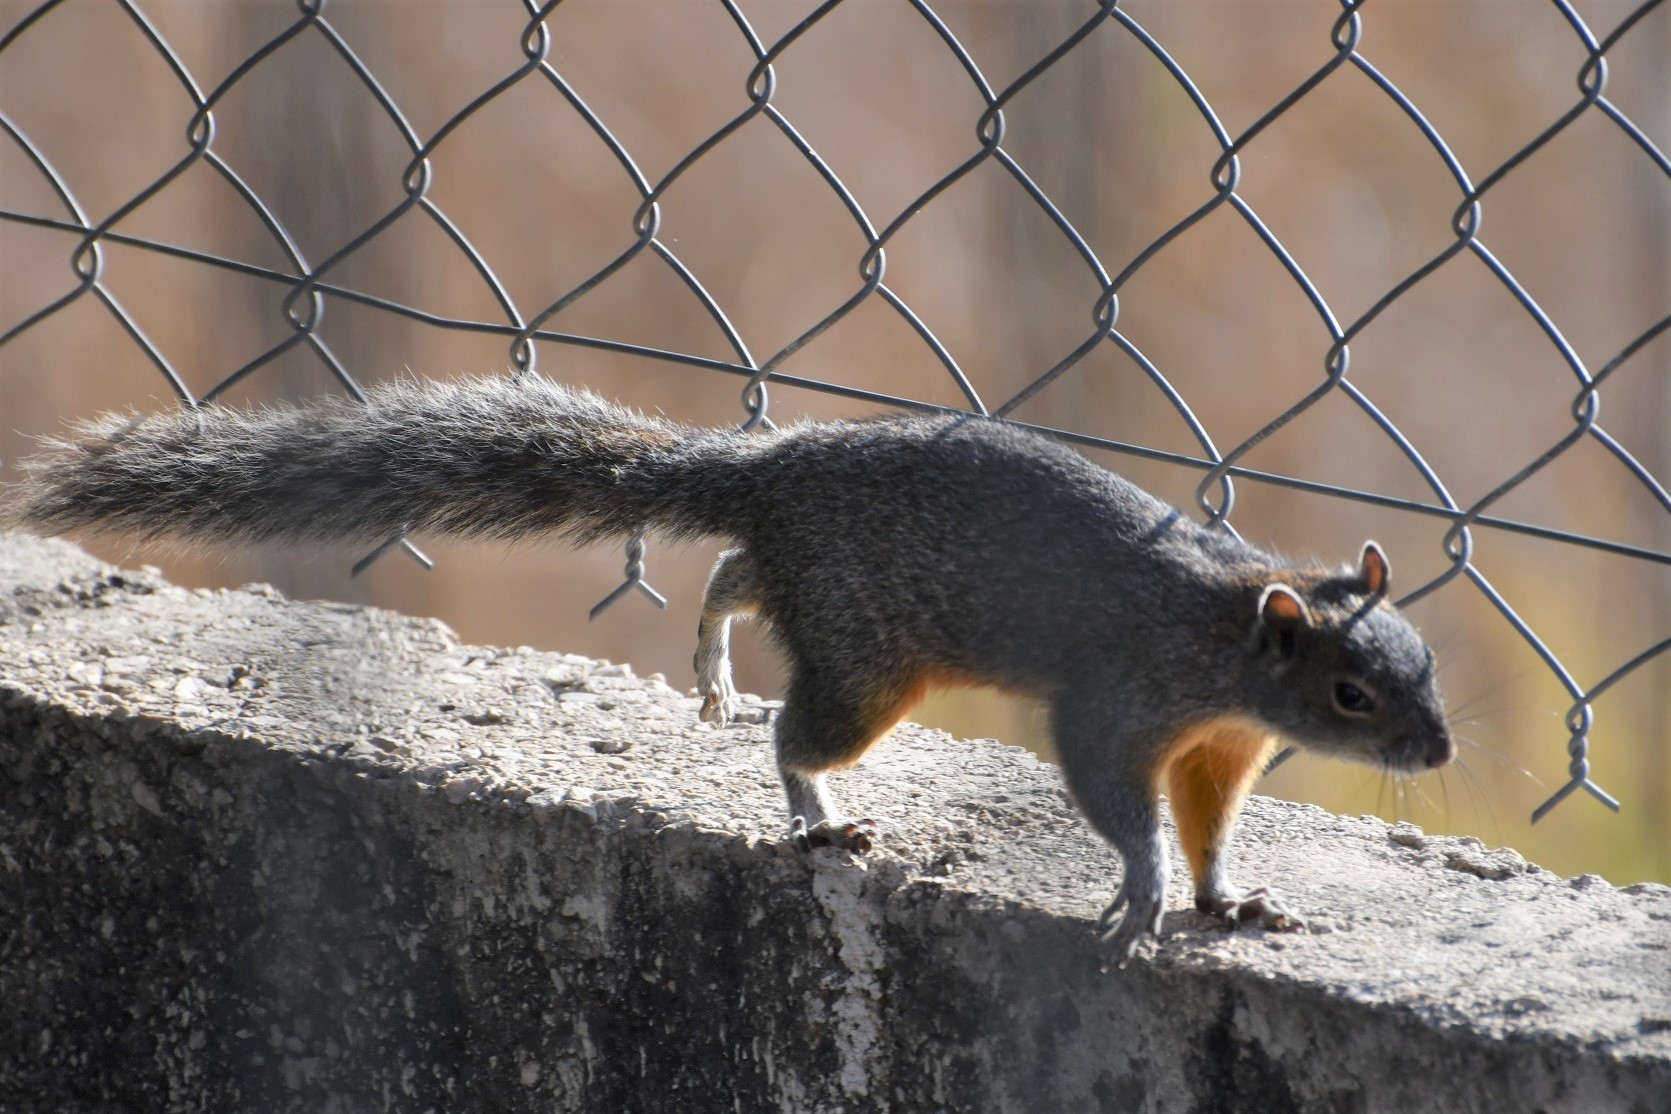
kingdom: Animalia
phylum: Chordata
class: Mammalia
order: Rodentia
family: Sciuridae
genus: Sciurus
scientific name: Sciurus aureogaster
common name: Red-bellied squirrel
